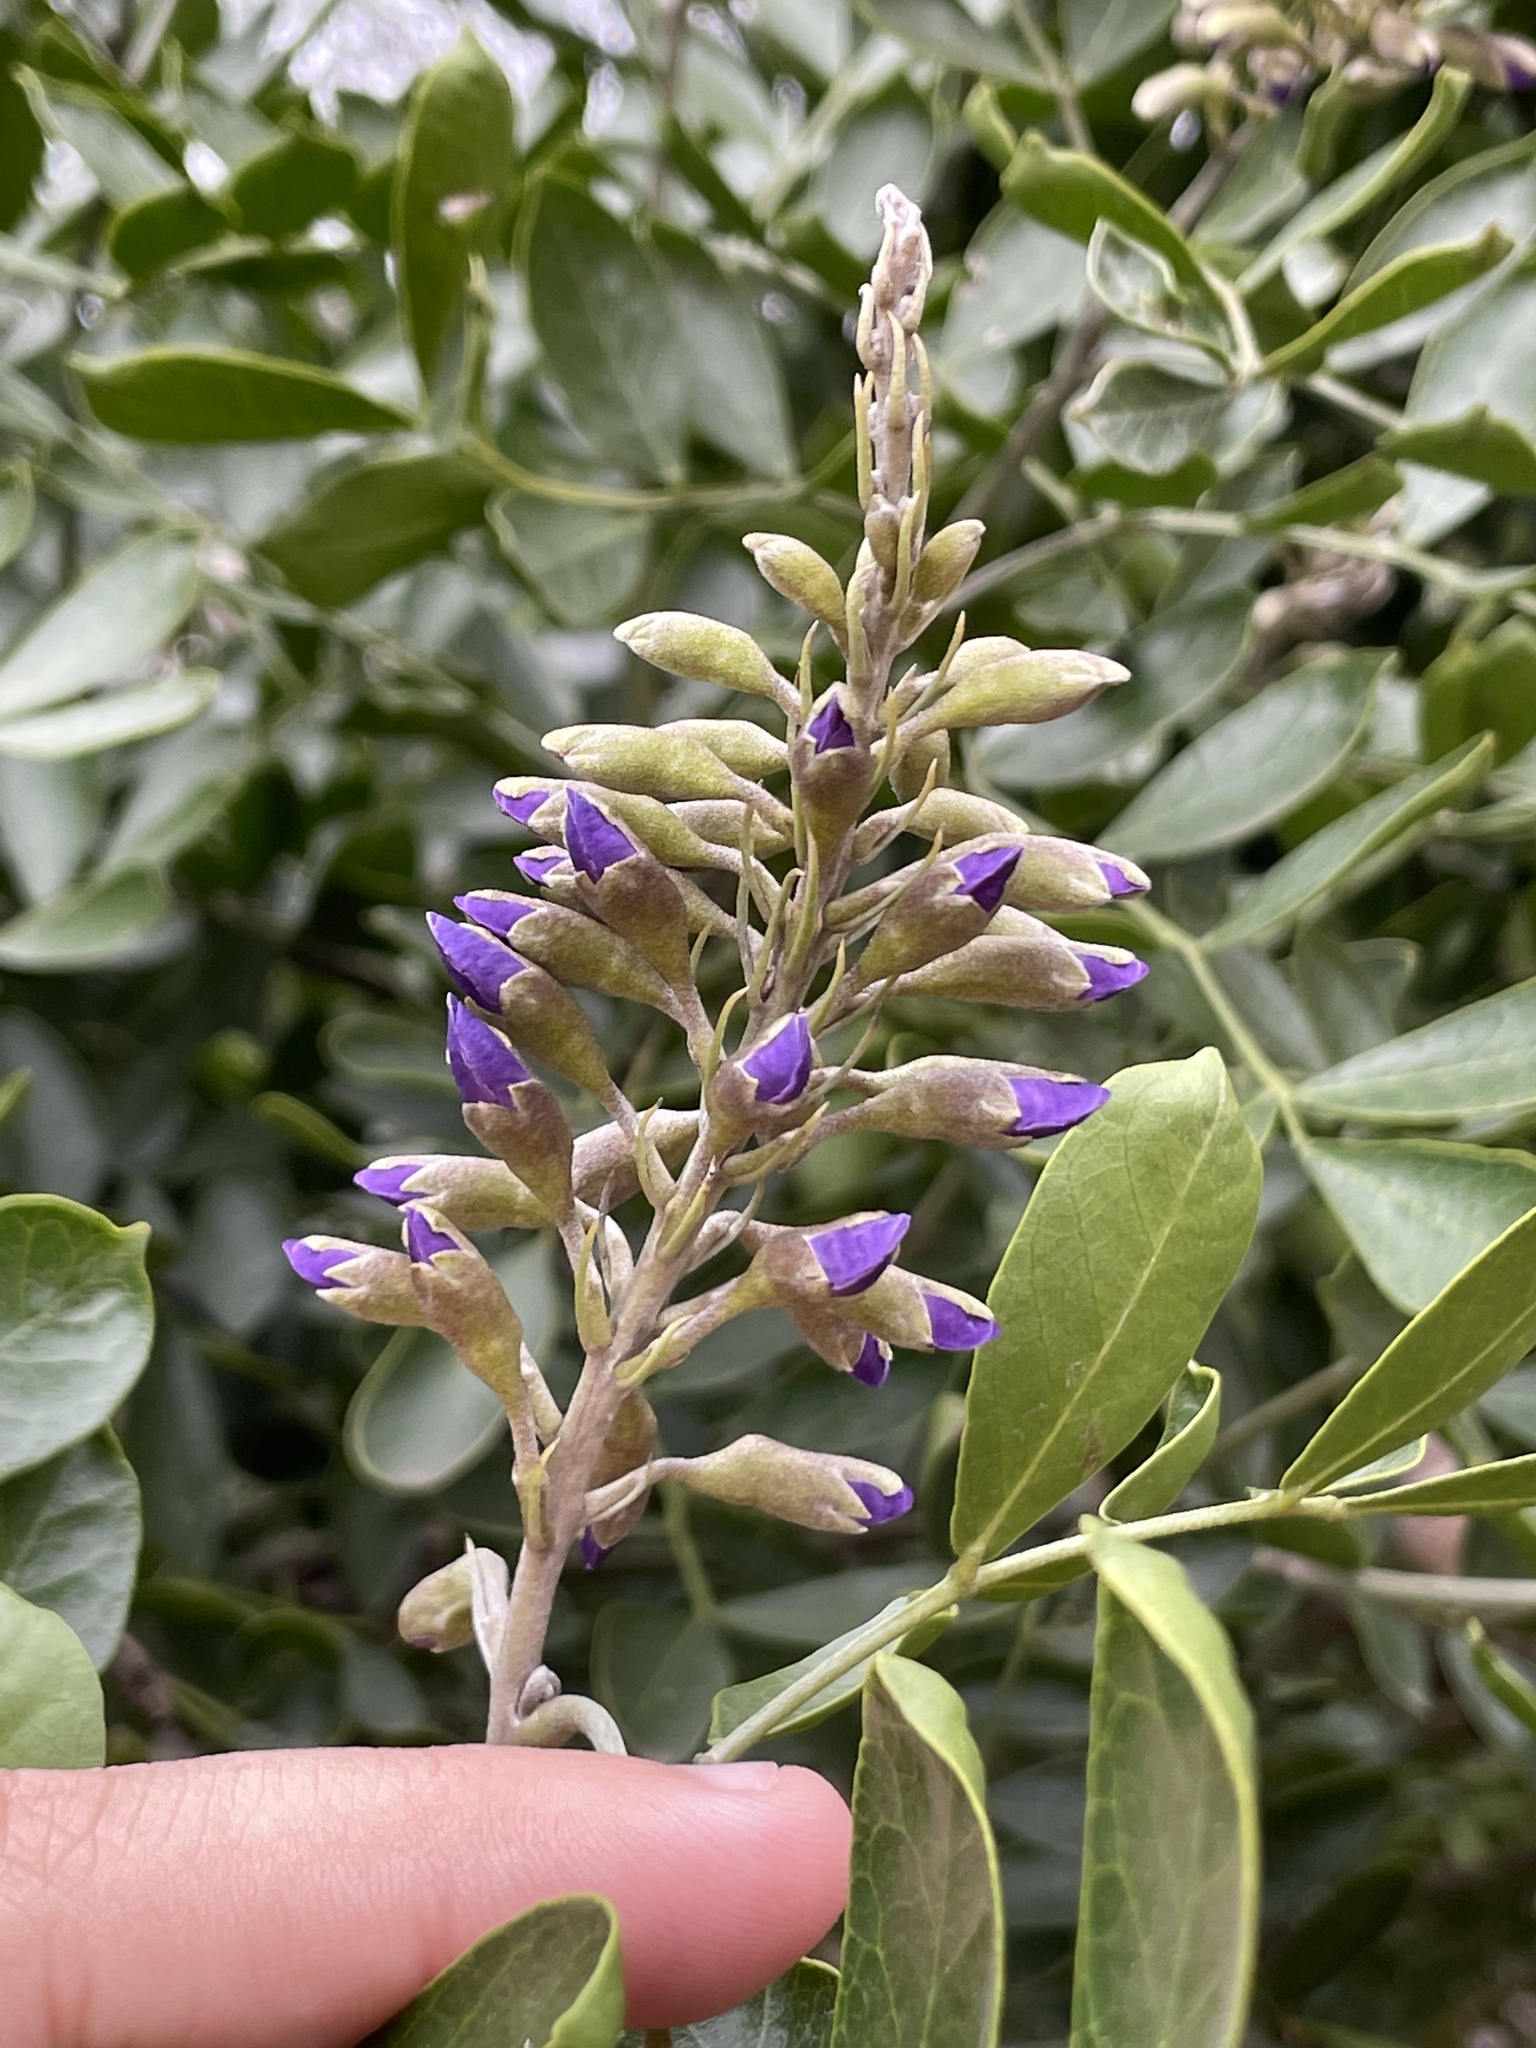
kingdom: Plantae
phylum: Tracheophyta
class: Magnoliopsida
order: Fabales
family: Fabaceae
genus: Dermatophyllum
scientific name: Dermatophyllum secundiflorum
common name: Texas-mountain-laurel
